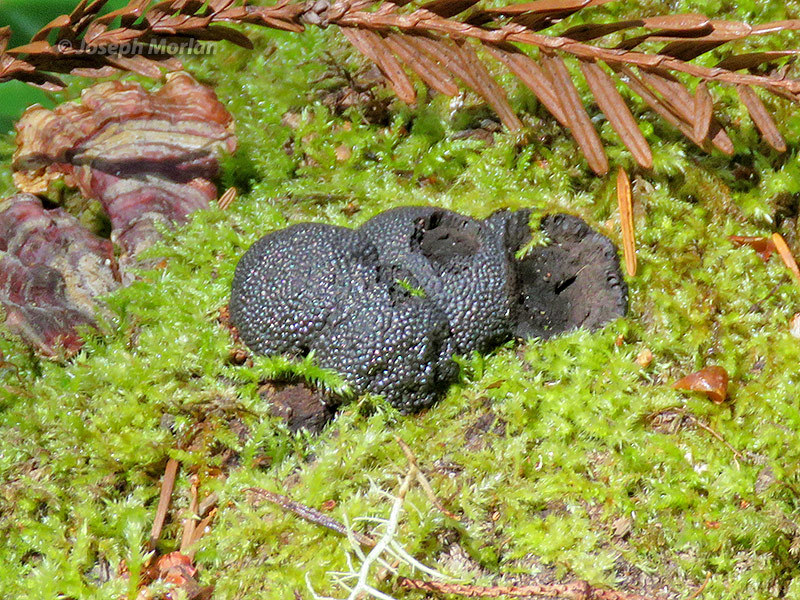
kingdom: Fungi
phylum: Ascomycota
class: Sordariomycetes
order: Xylariales
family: Hypoxylaceae
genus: Annulohypoxylon
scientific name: Annulohypoxylon thouarsianum
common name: Cramp balls
